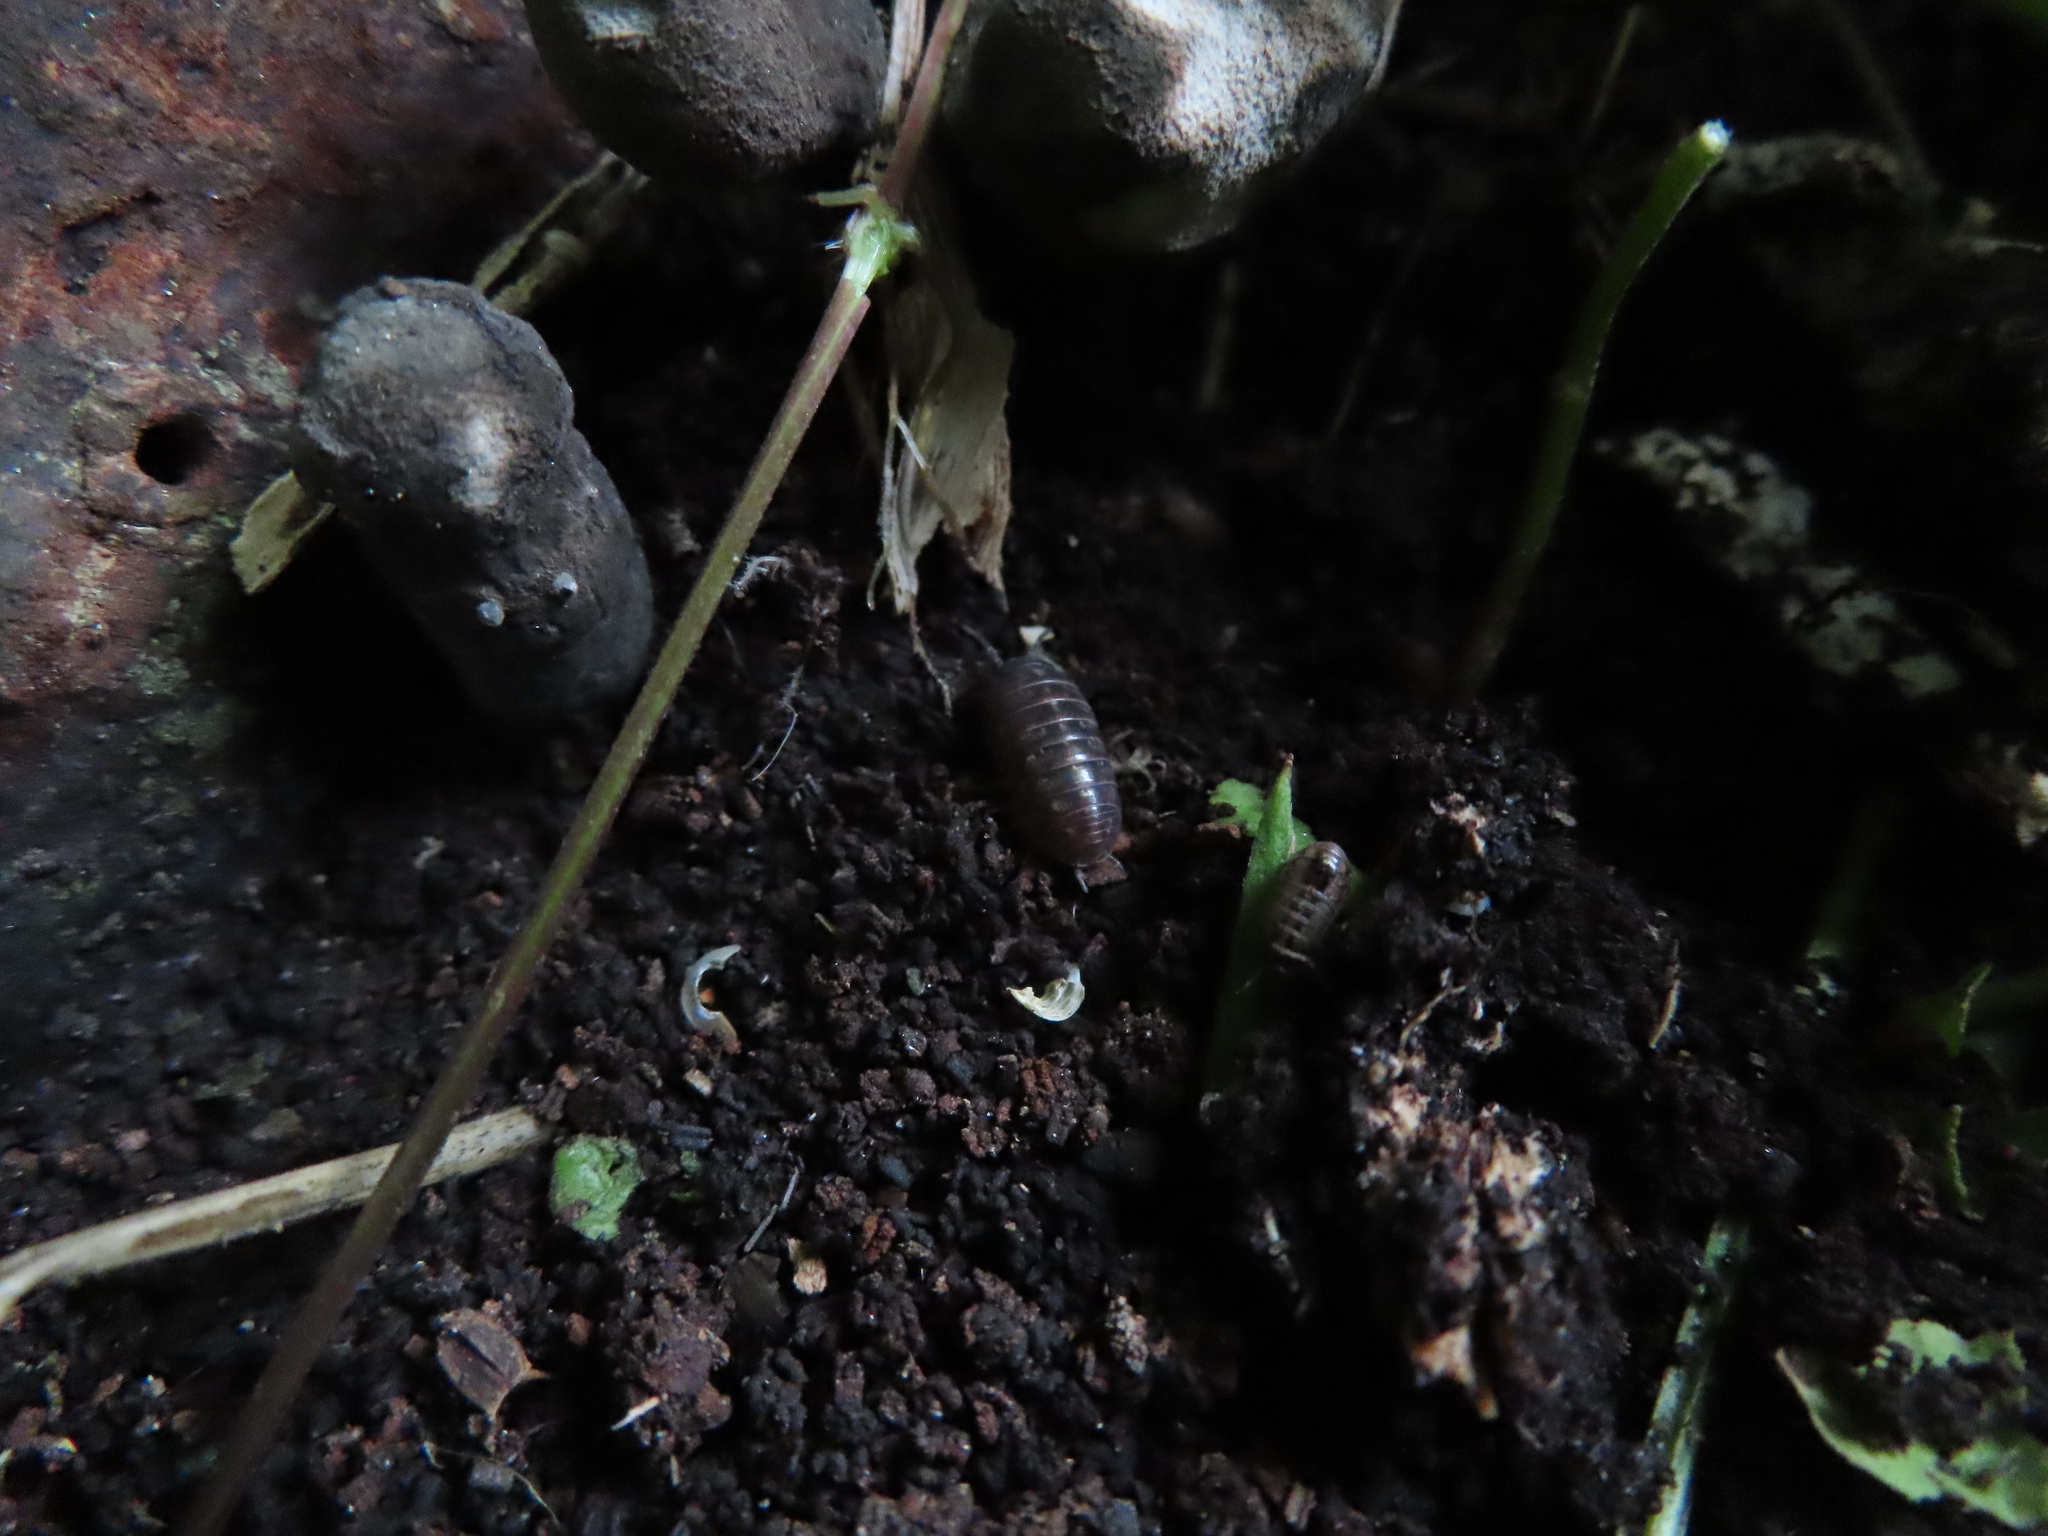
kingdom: Animalia
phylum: Arthropoda
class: Malacostraca
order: Isopoda
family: Armadillidiidae
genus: Armadillidium
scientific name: Armadillidium vulgare
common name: Common pill woodlouse
